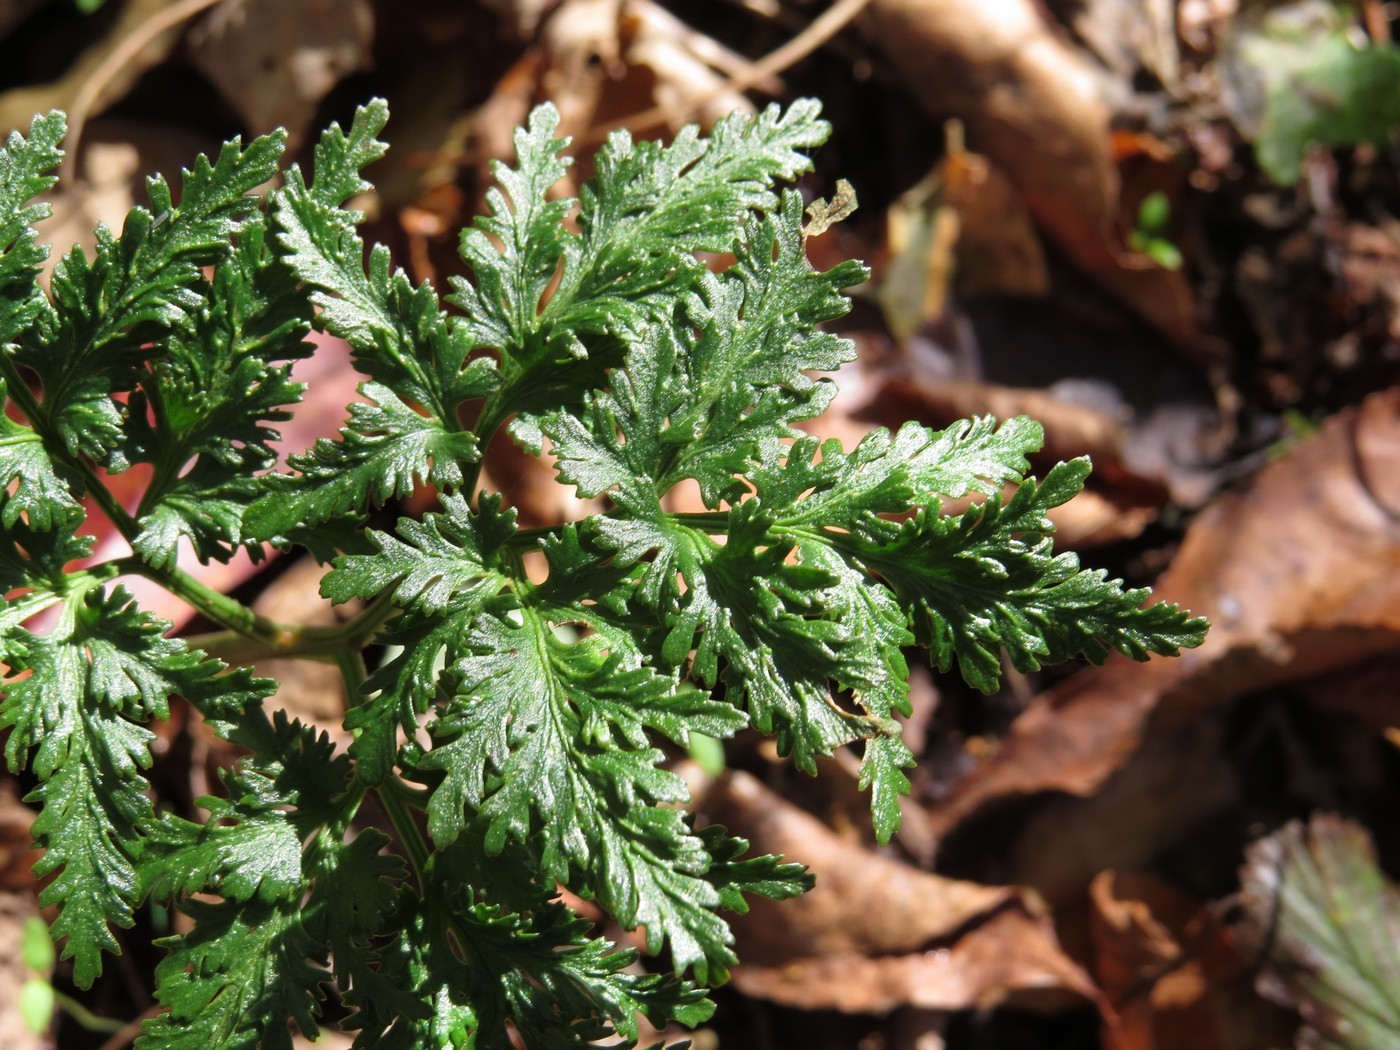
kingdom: Plantae
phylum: Tracheophyta
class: Polypodiopsida
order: Ophioglossales
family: Ophioglossaceae
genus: Sceptridium
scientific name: Sceptridium dissectum
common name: Cut-leaved grapefern
